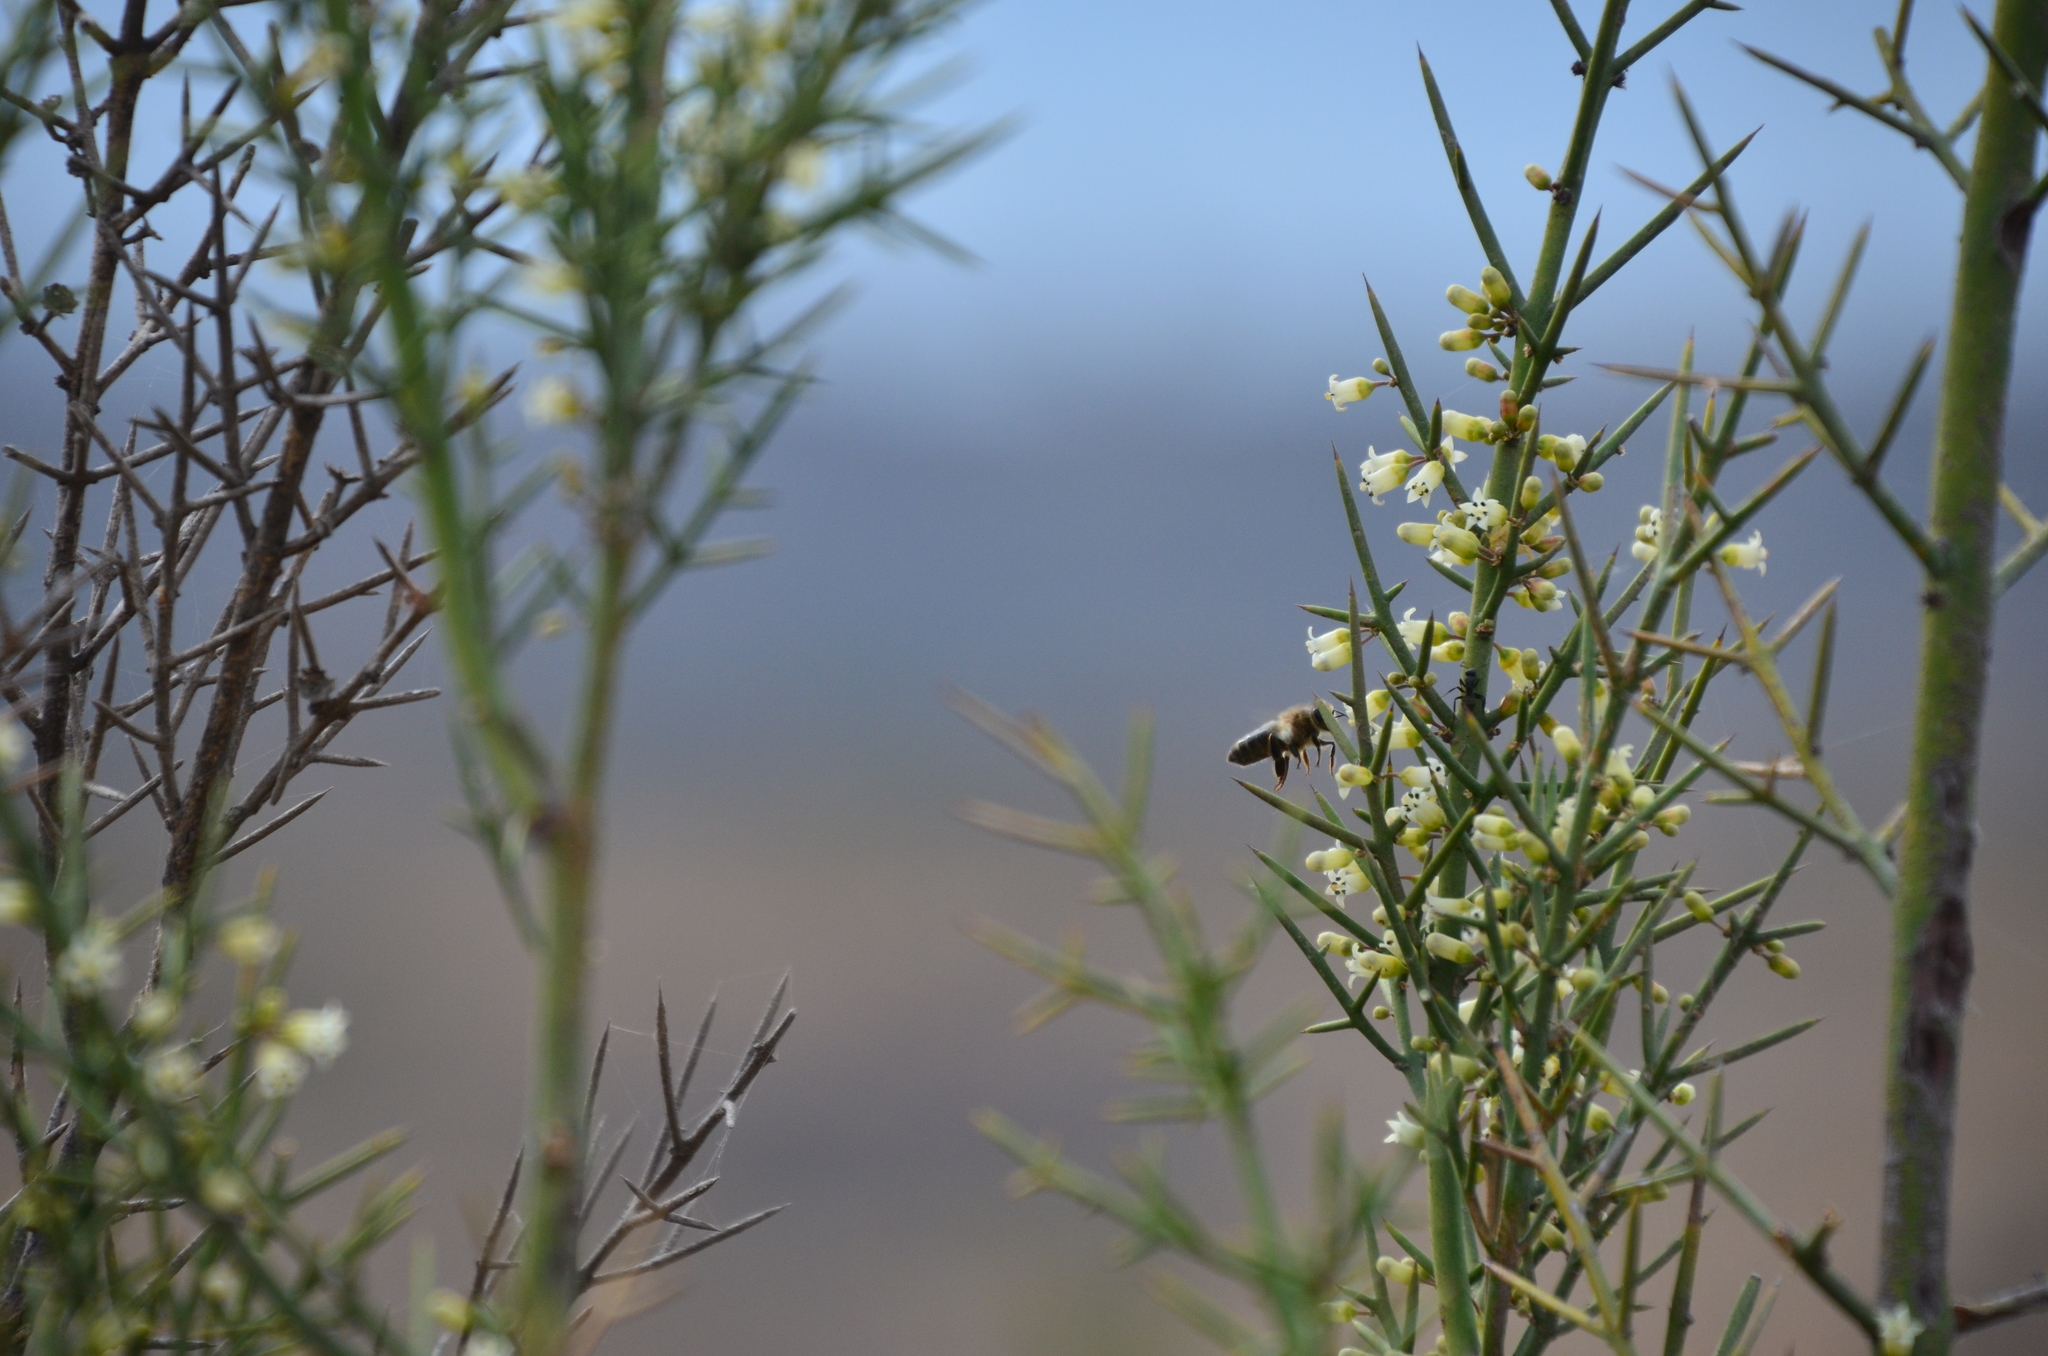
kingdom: Plantae
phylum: Tracheophyta
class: Magnoliopsida
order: Rosales
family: Rhamnaceae
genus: Colletia
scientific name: Colletia spinosissima
